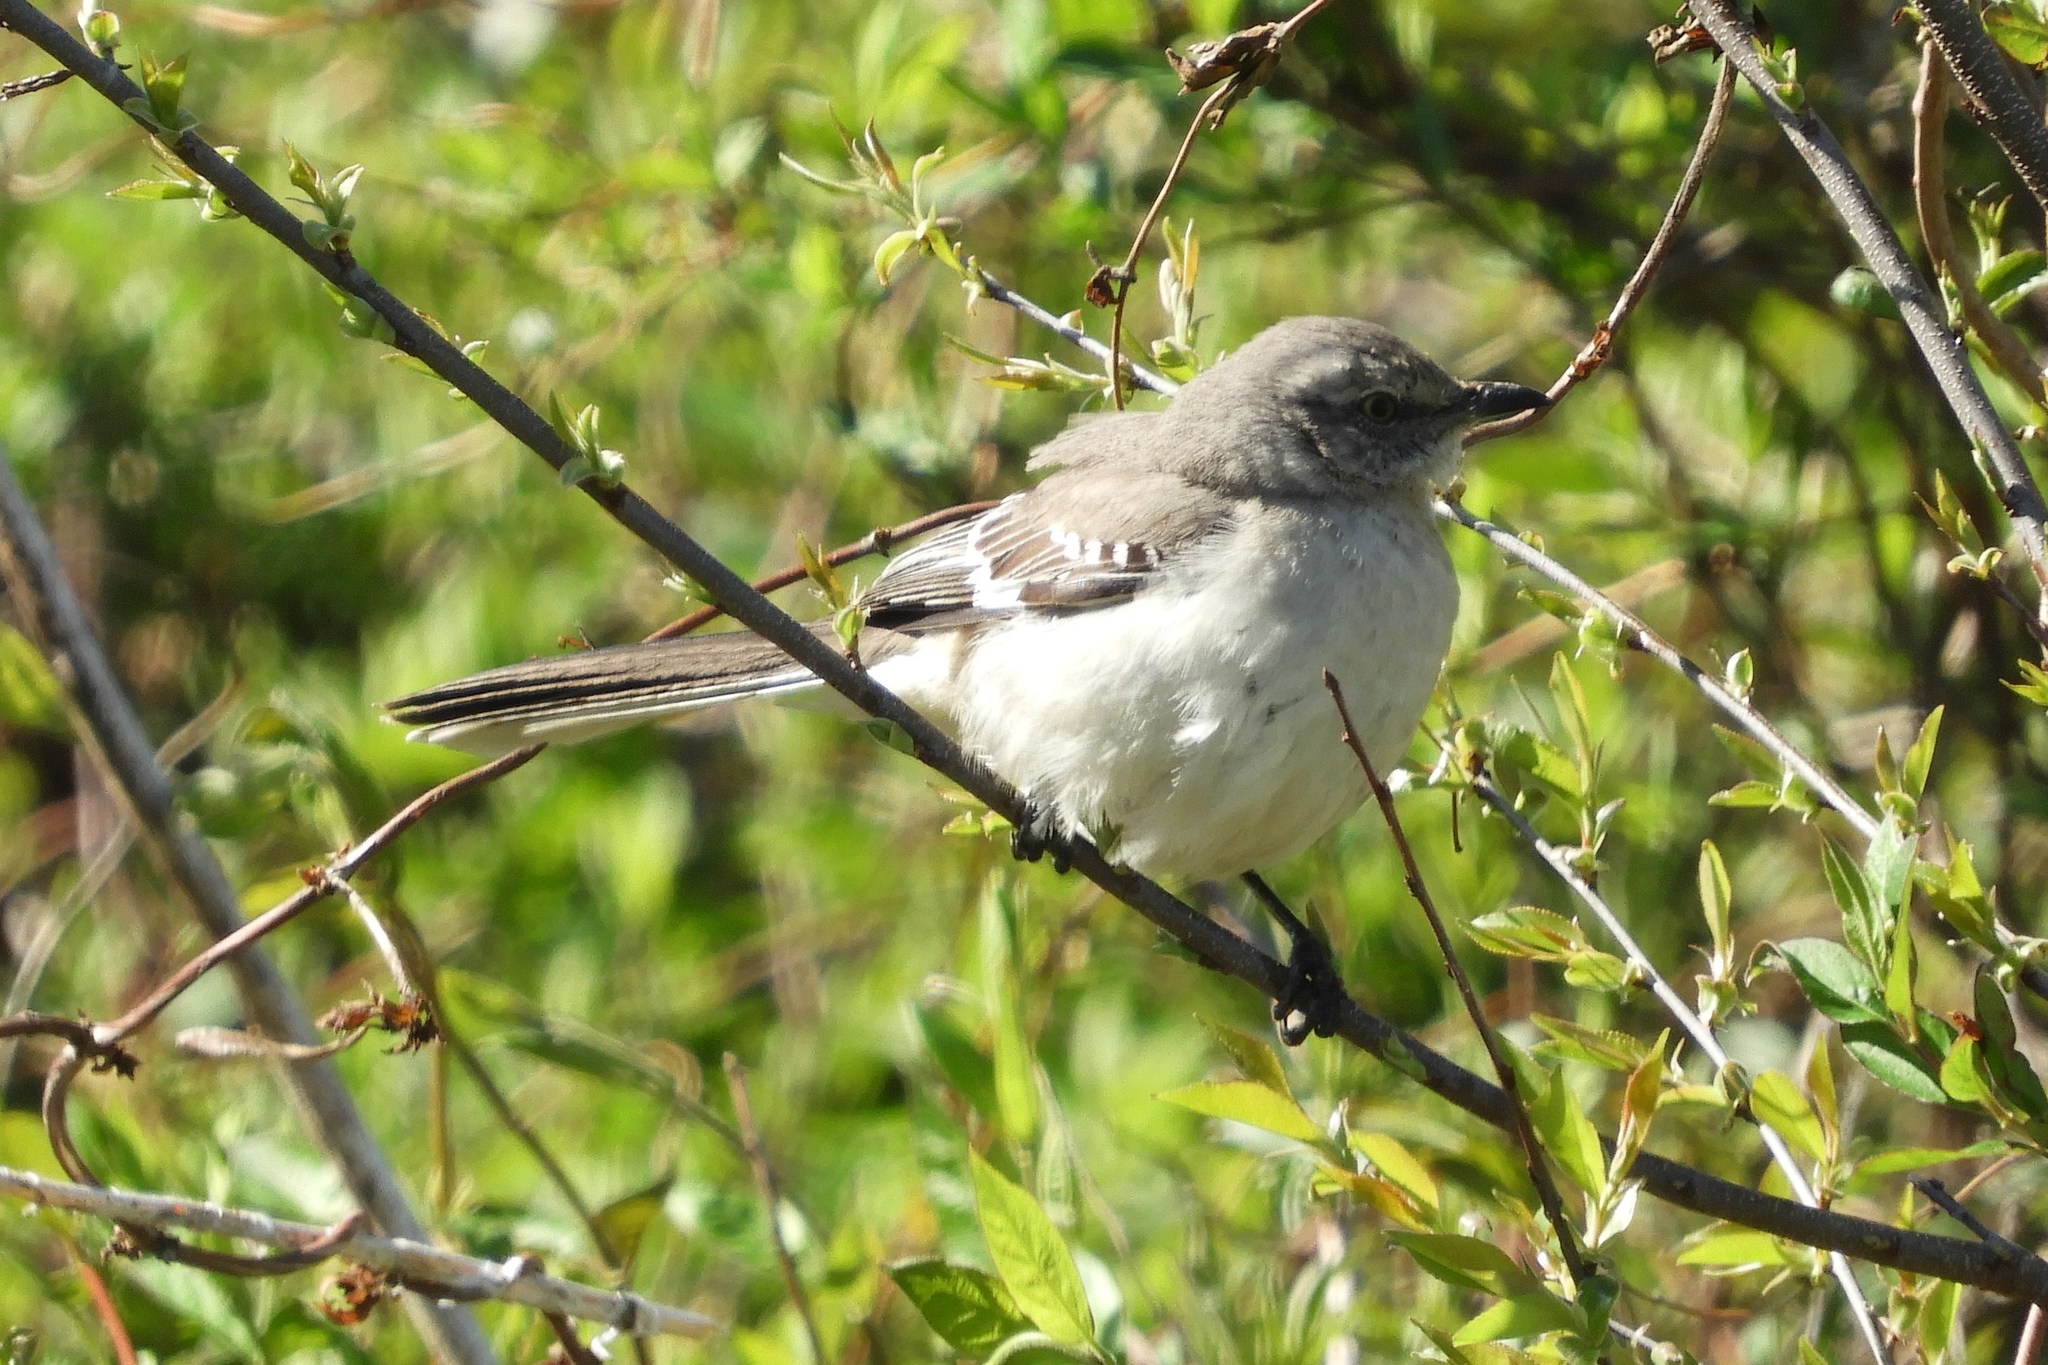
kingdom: Animalia
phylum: Chordata
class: Aves
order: Passeriformes
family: Mimidae
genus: Mimus
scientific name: Mimus polyglottos
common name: Northern mockingbird
